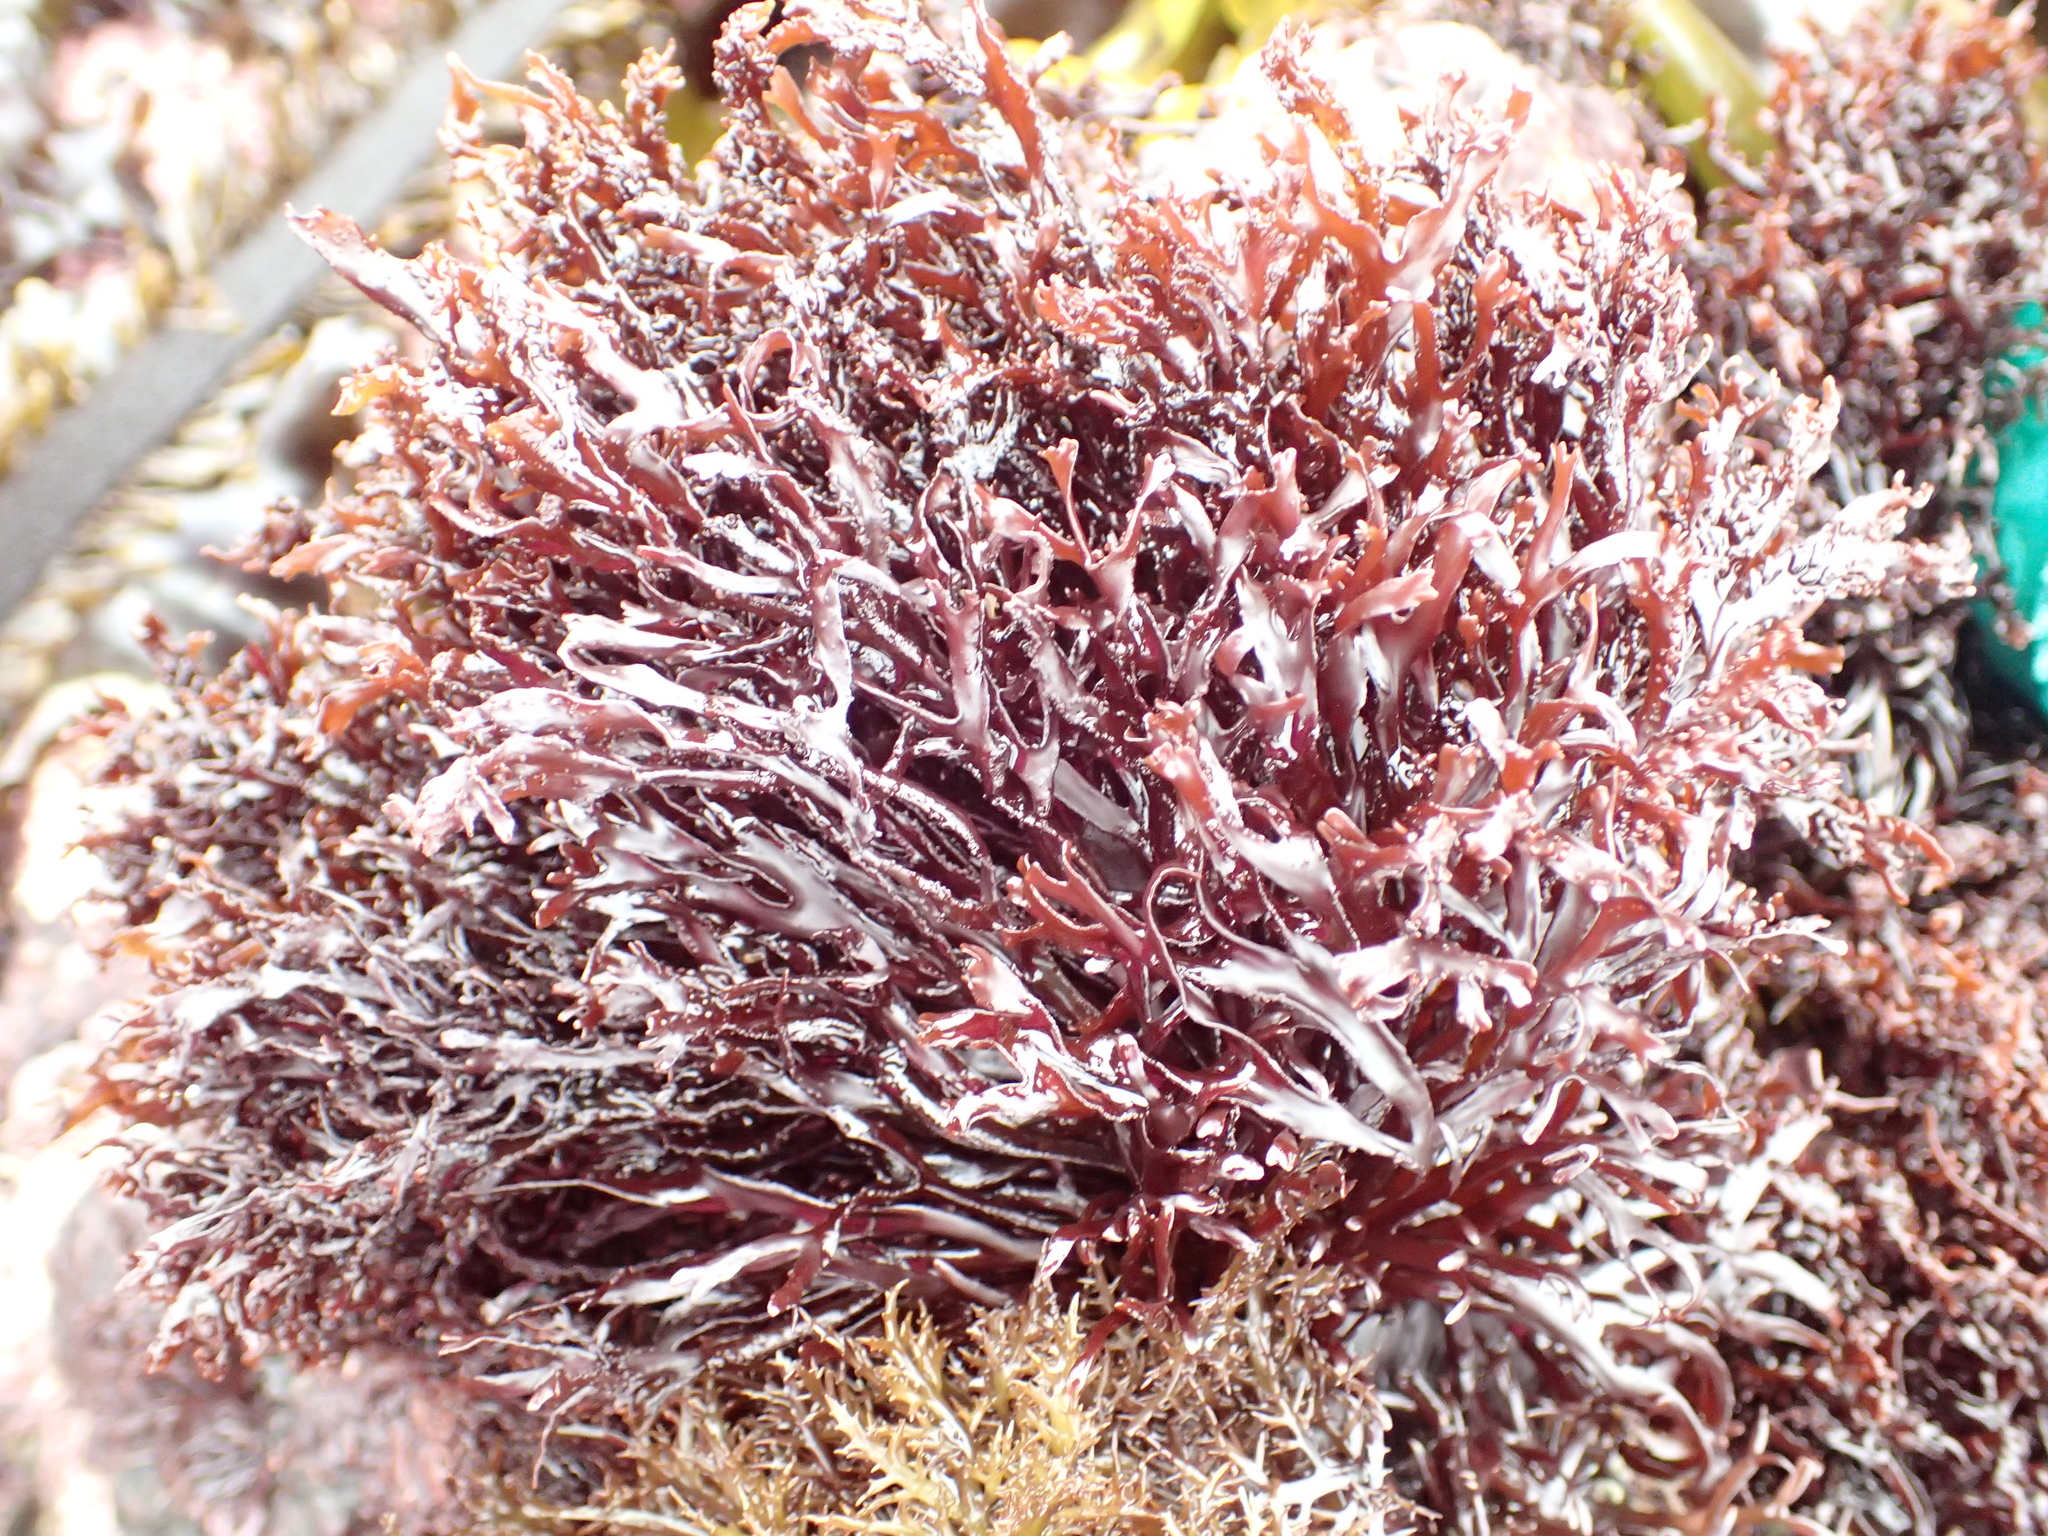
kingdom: Plantae
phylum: Rhodophyta
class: Florideophyceae
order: Gigartinales
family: Phyllophoraceae
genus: Mastocarpus
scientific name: Mastocarpus jardinii
